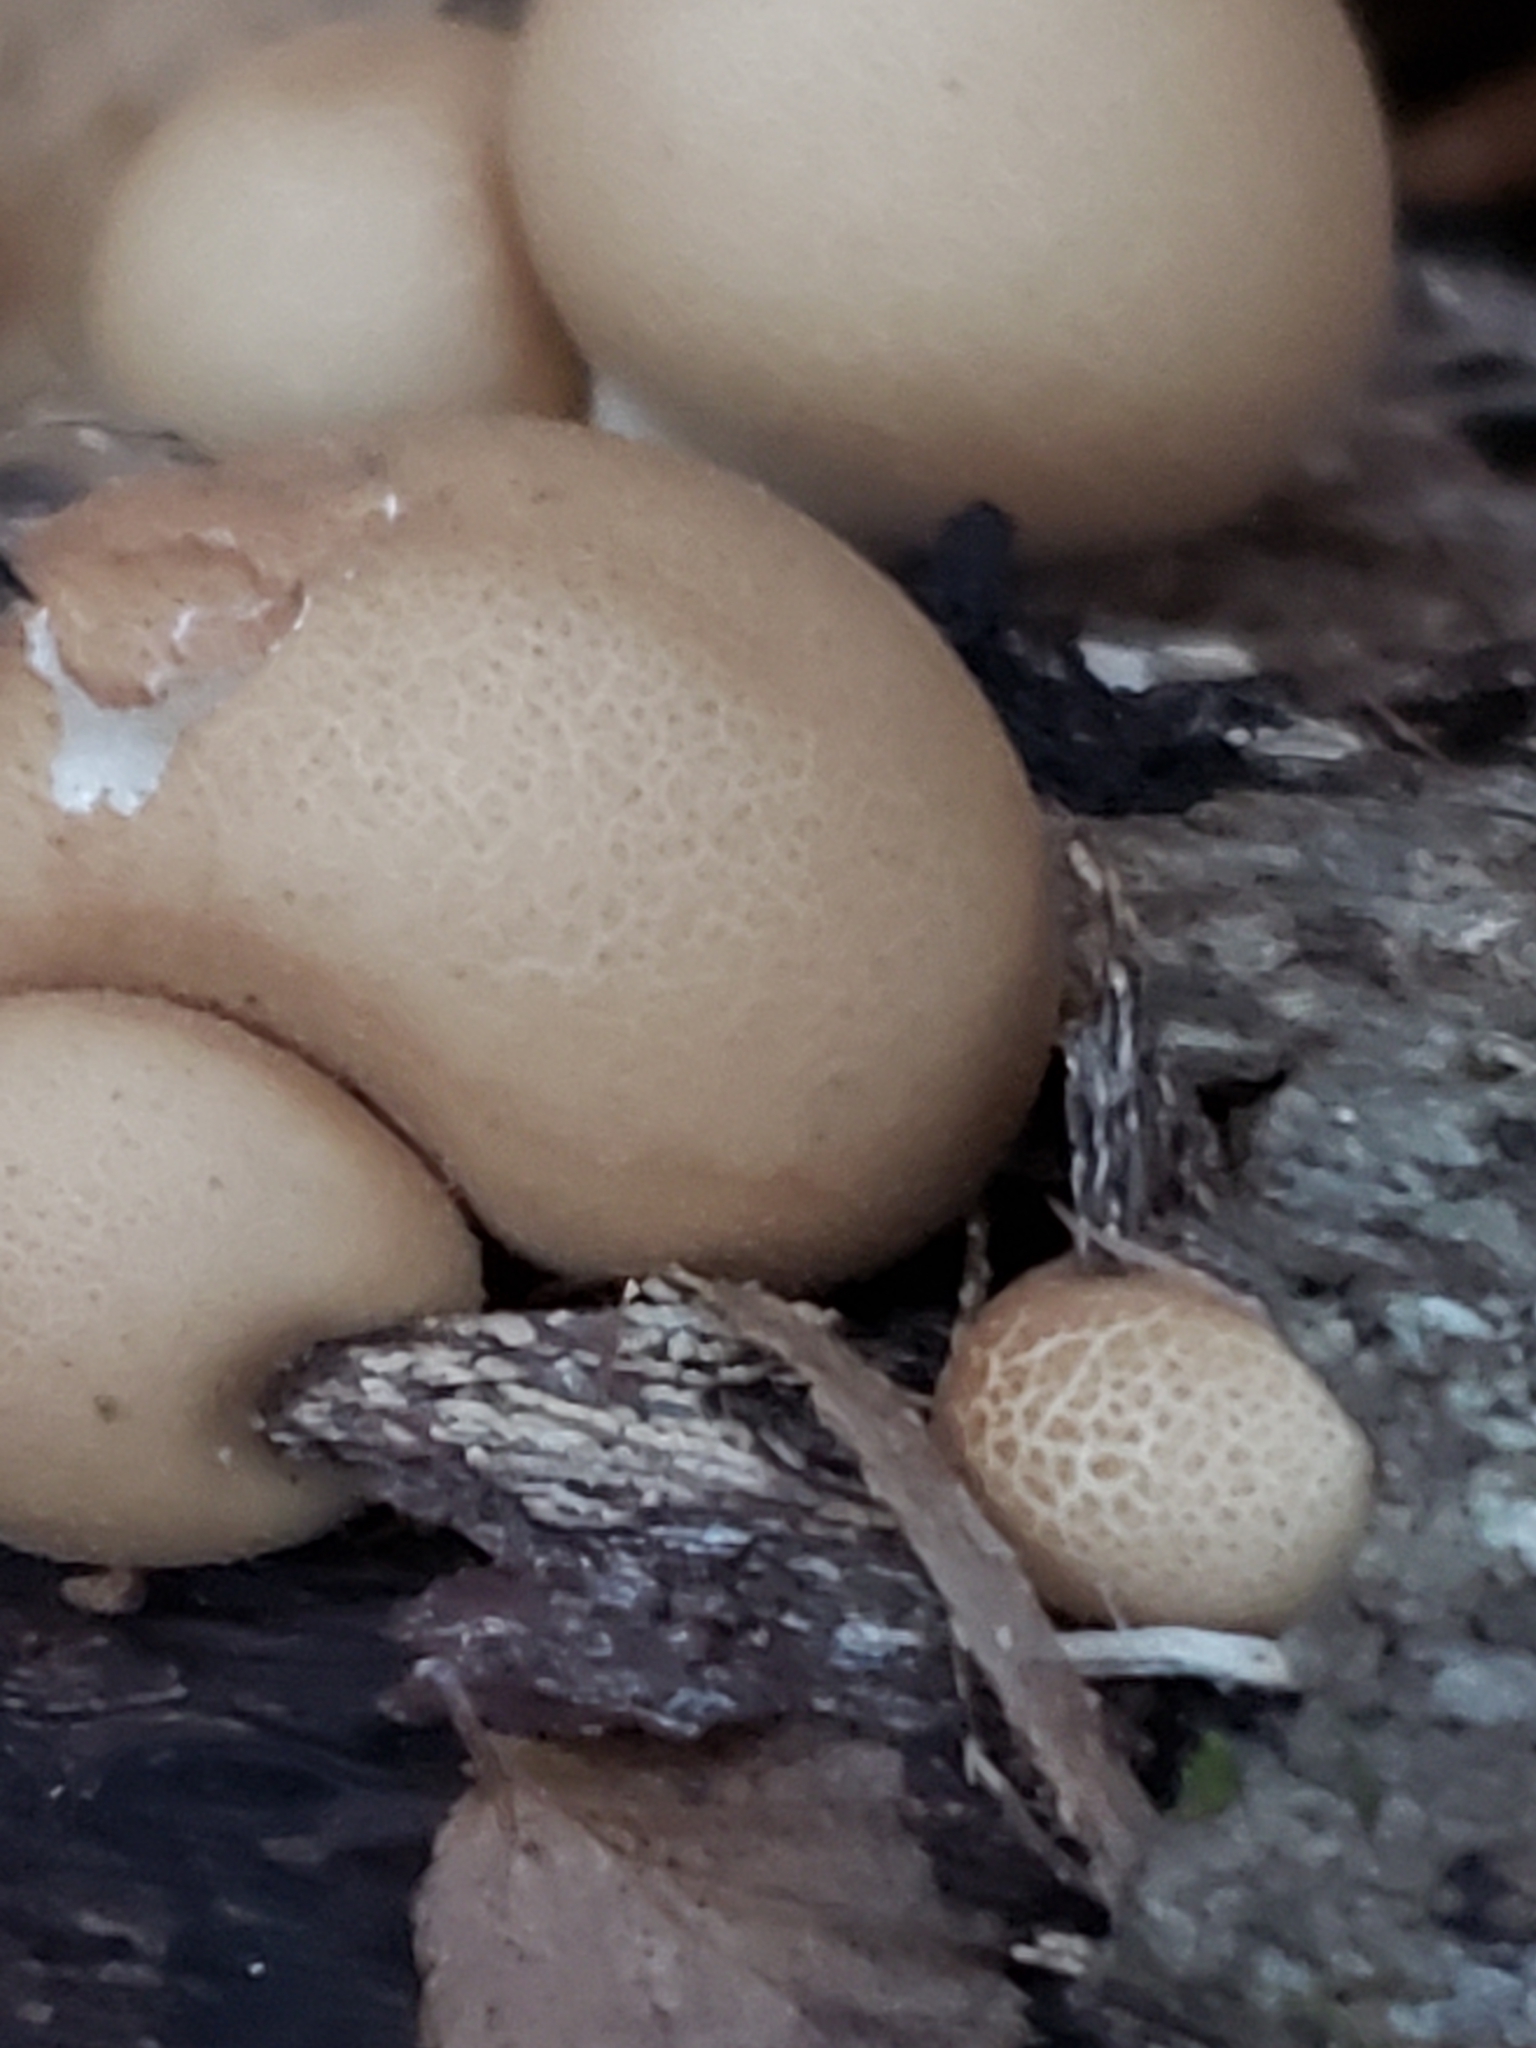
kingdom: Fungi
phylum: Basidiomycota
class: Agaricomycetes
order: Agaricales
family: Lycoperdaceae
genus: Apioperdon
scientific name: Apioperdon pyriforme
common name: Pear-shaped puffball
